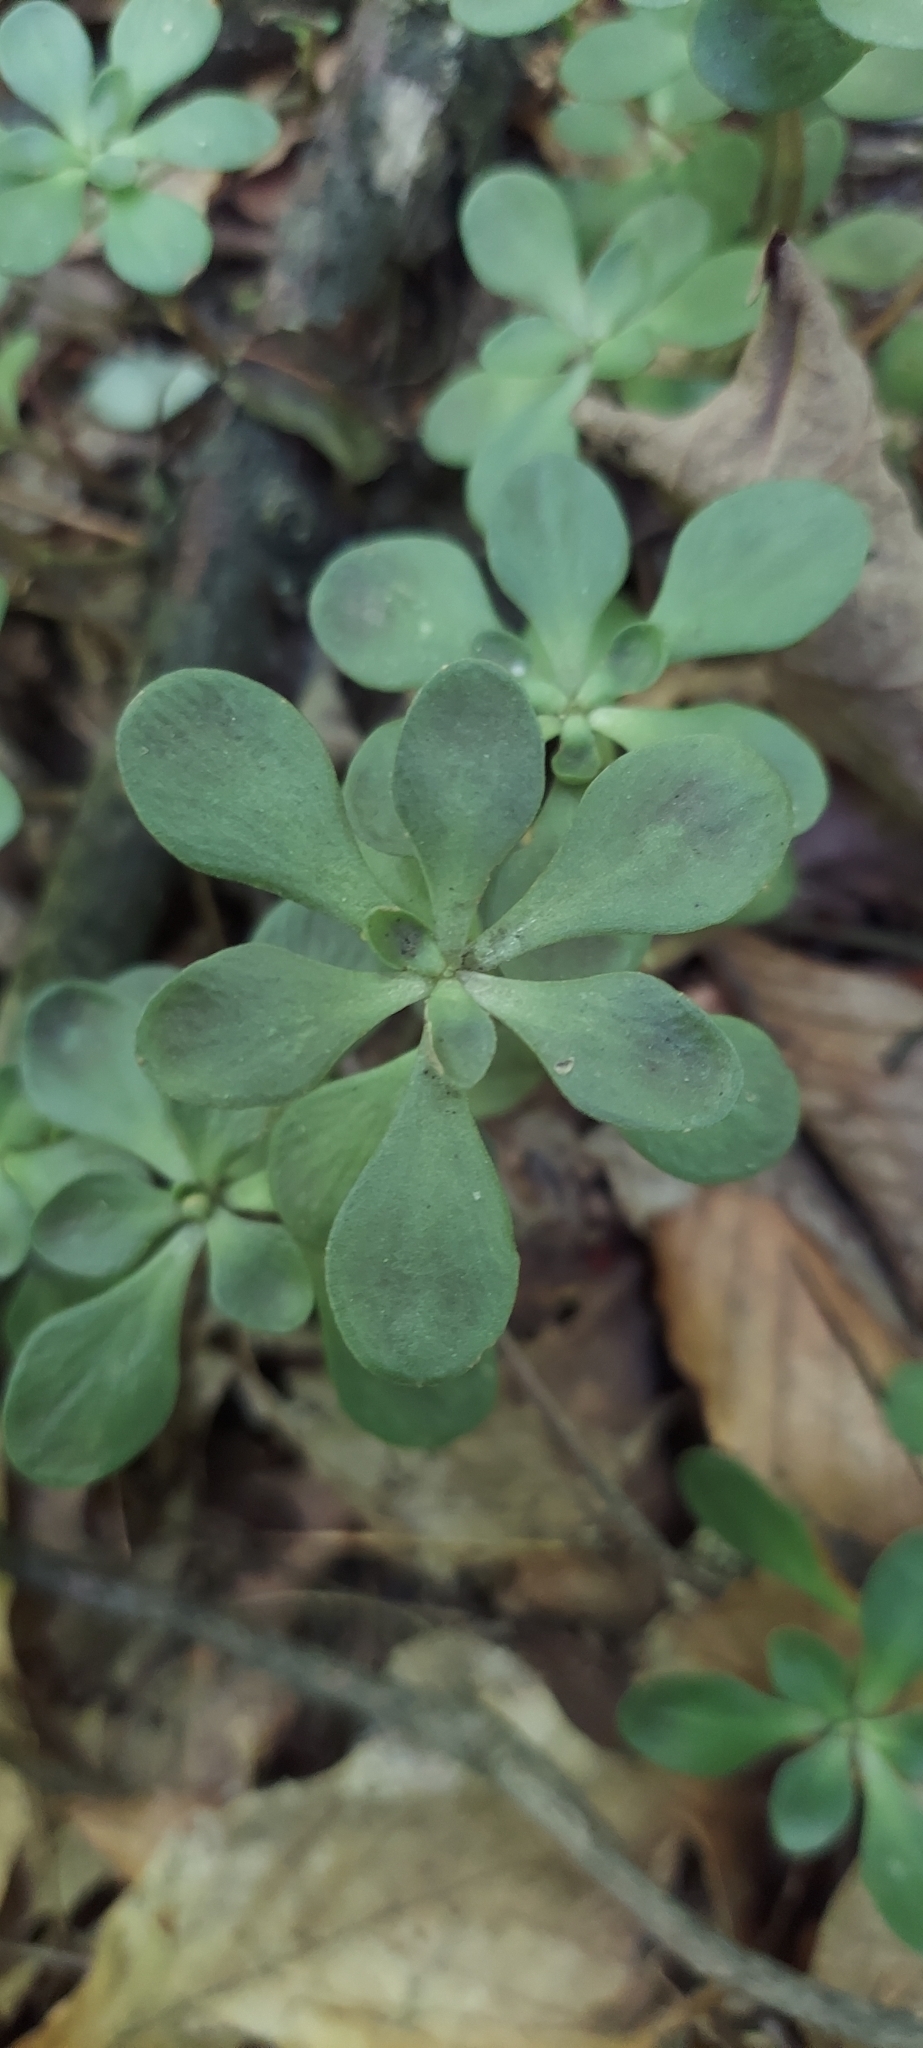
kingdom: Plantae
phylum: Tracheophyta
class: Magnoliopsida
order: Saxifragales
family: Crassulaceae
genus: Sedum
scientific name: Sedum ternatum
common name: Wild stonecrop
